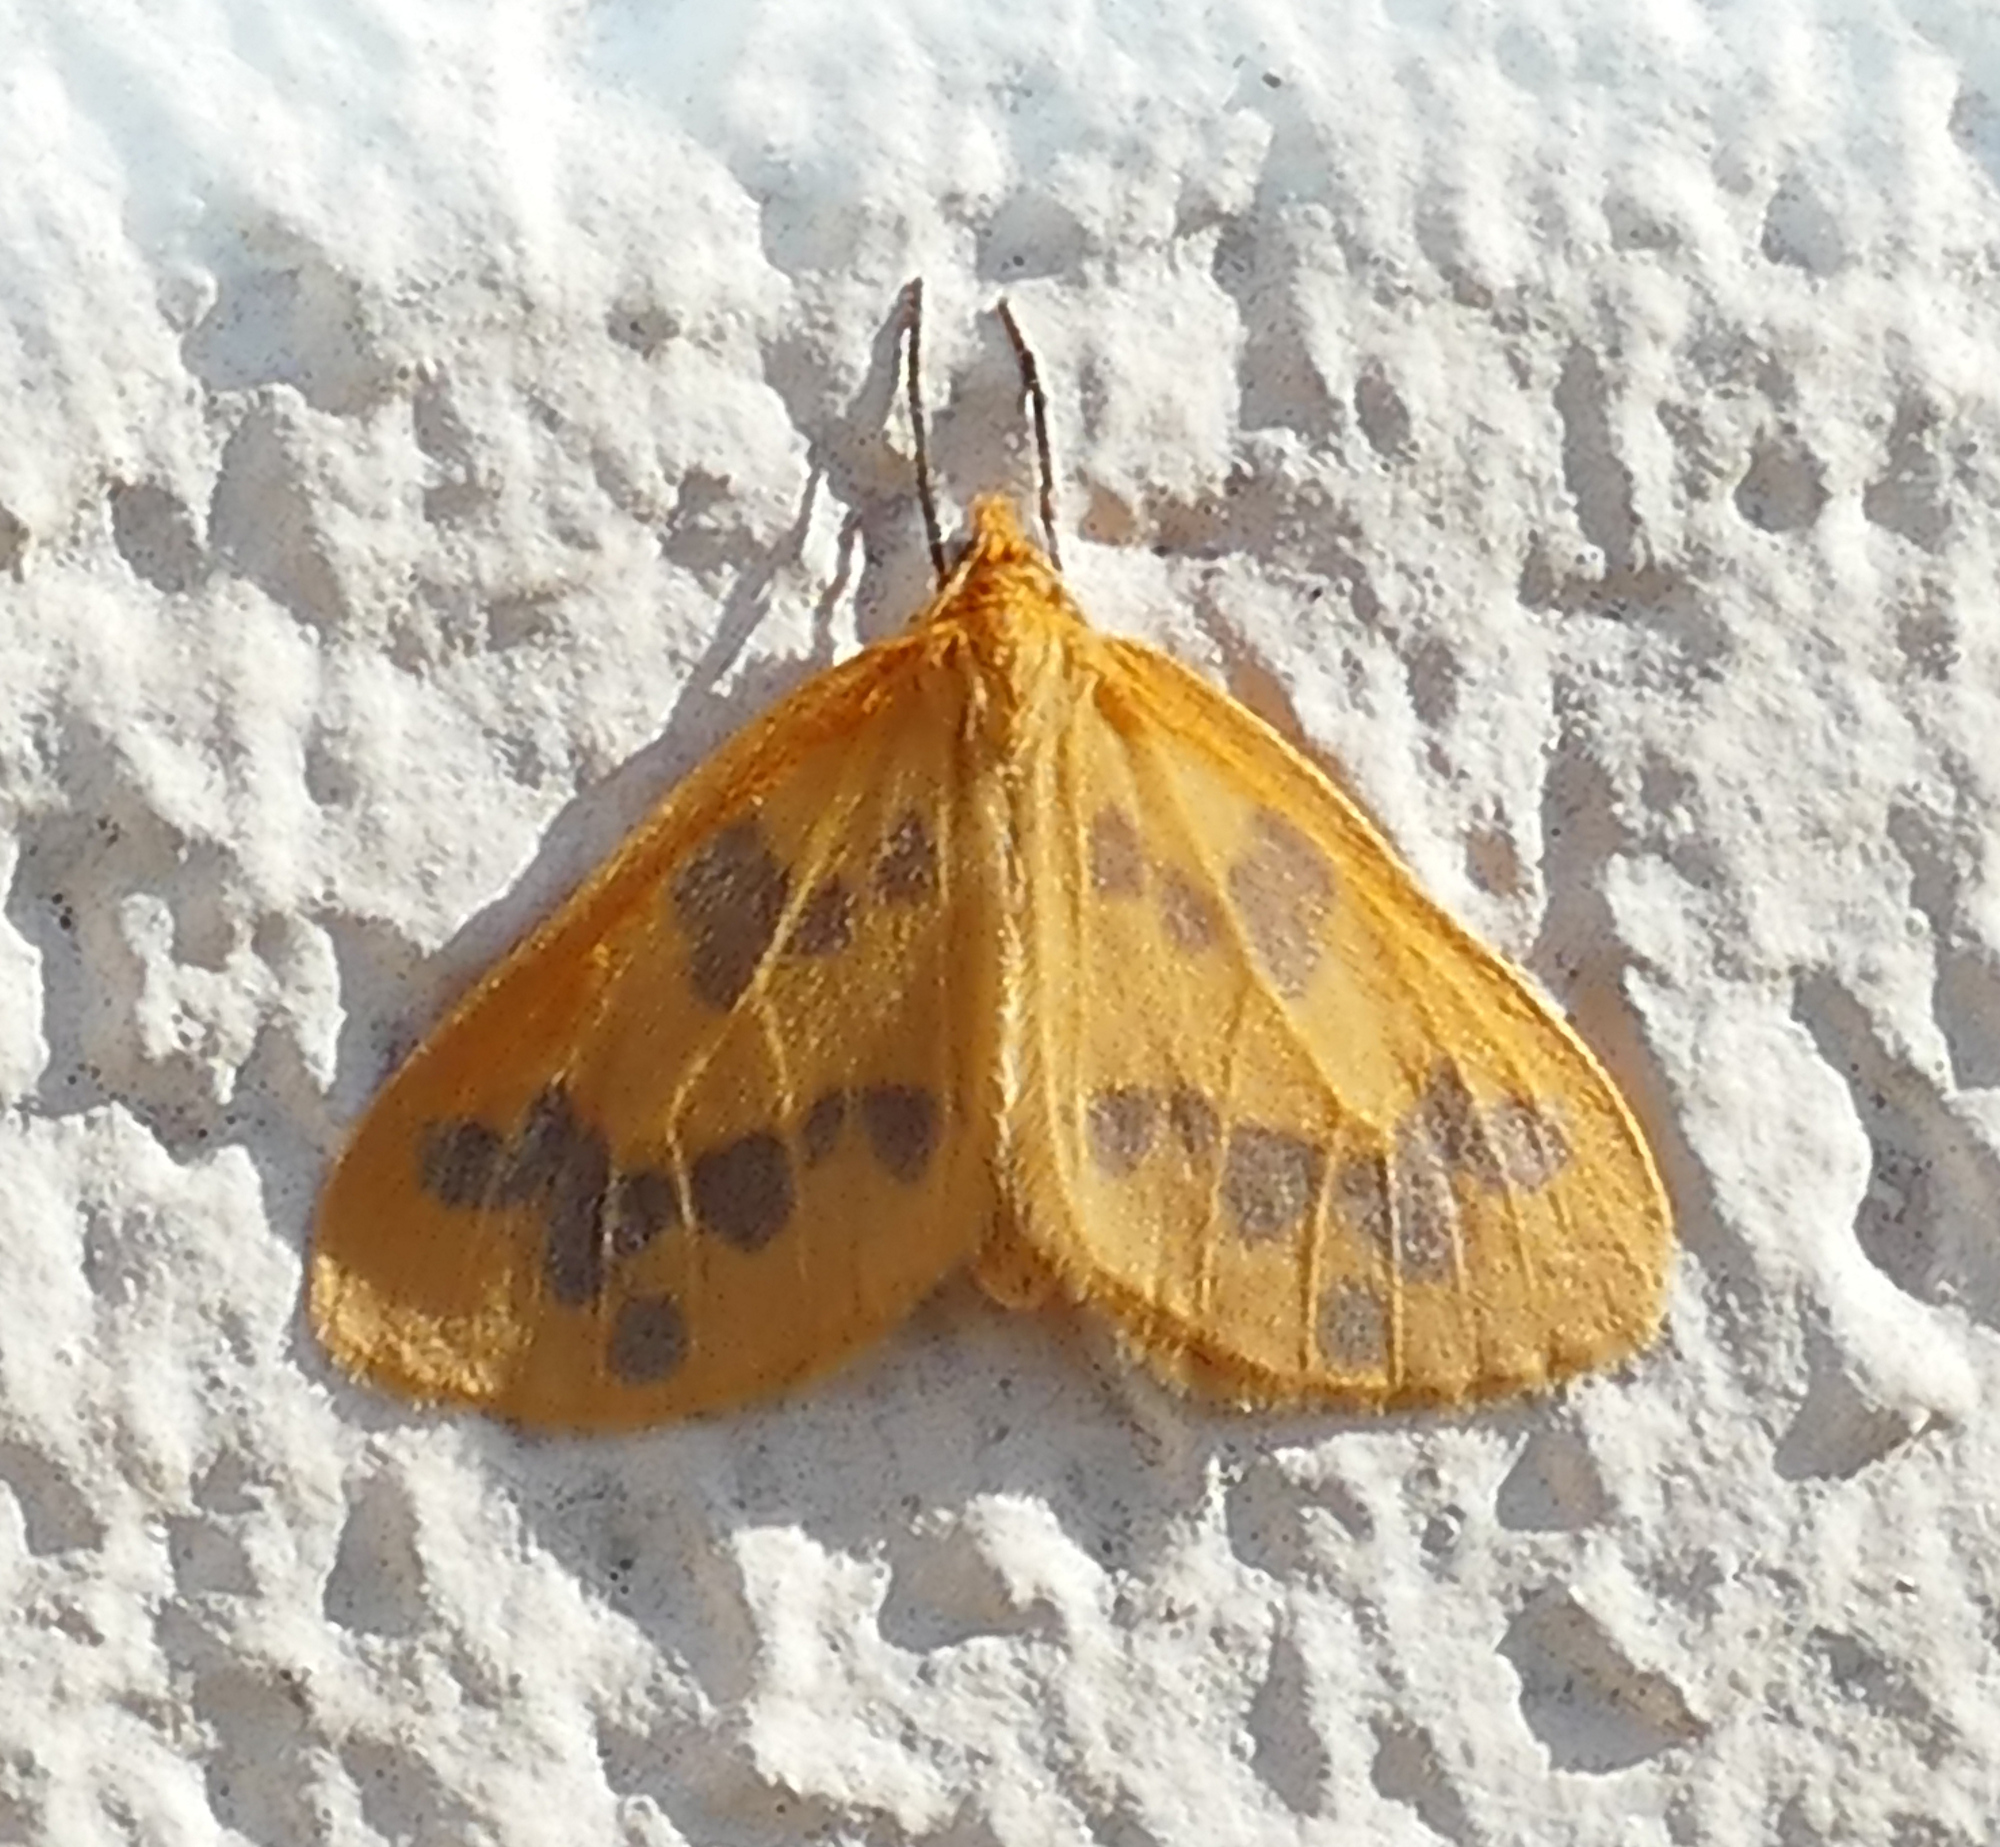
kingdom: Animalia
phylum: Arthropoda
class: Insecta
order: Lepidoptera
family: Geometridae
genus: Eubaphe
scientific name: Eubaphe mendica
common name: Beggar
